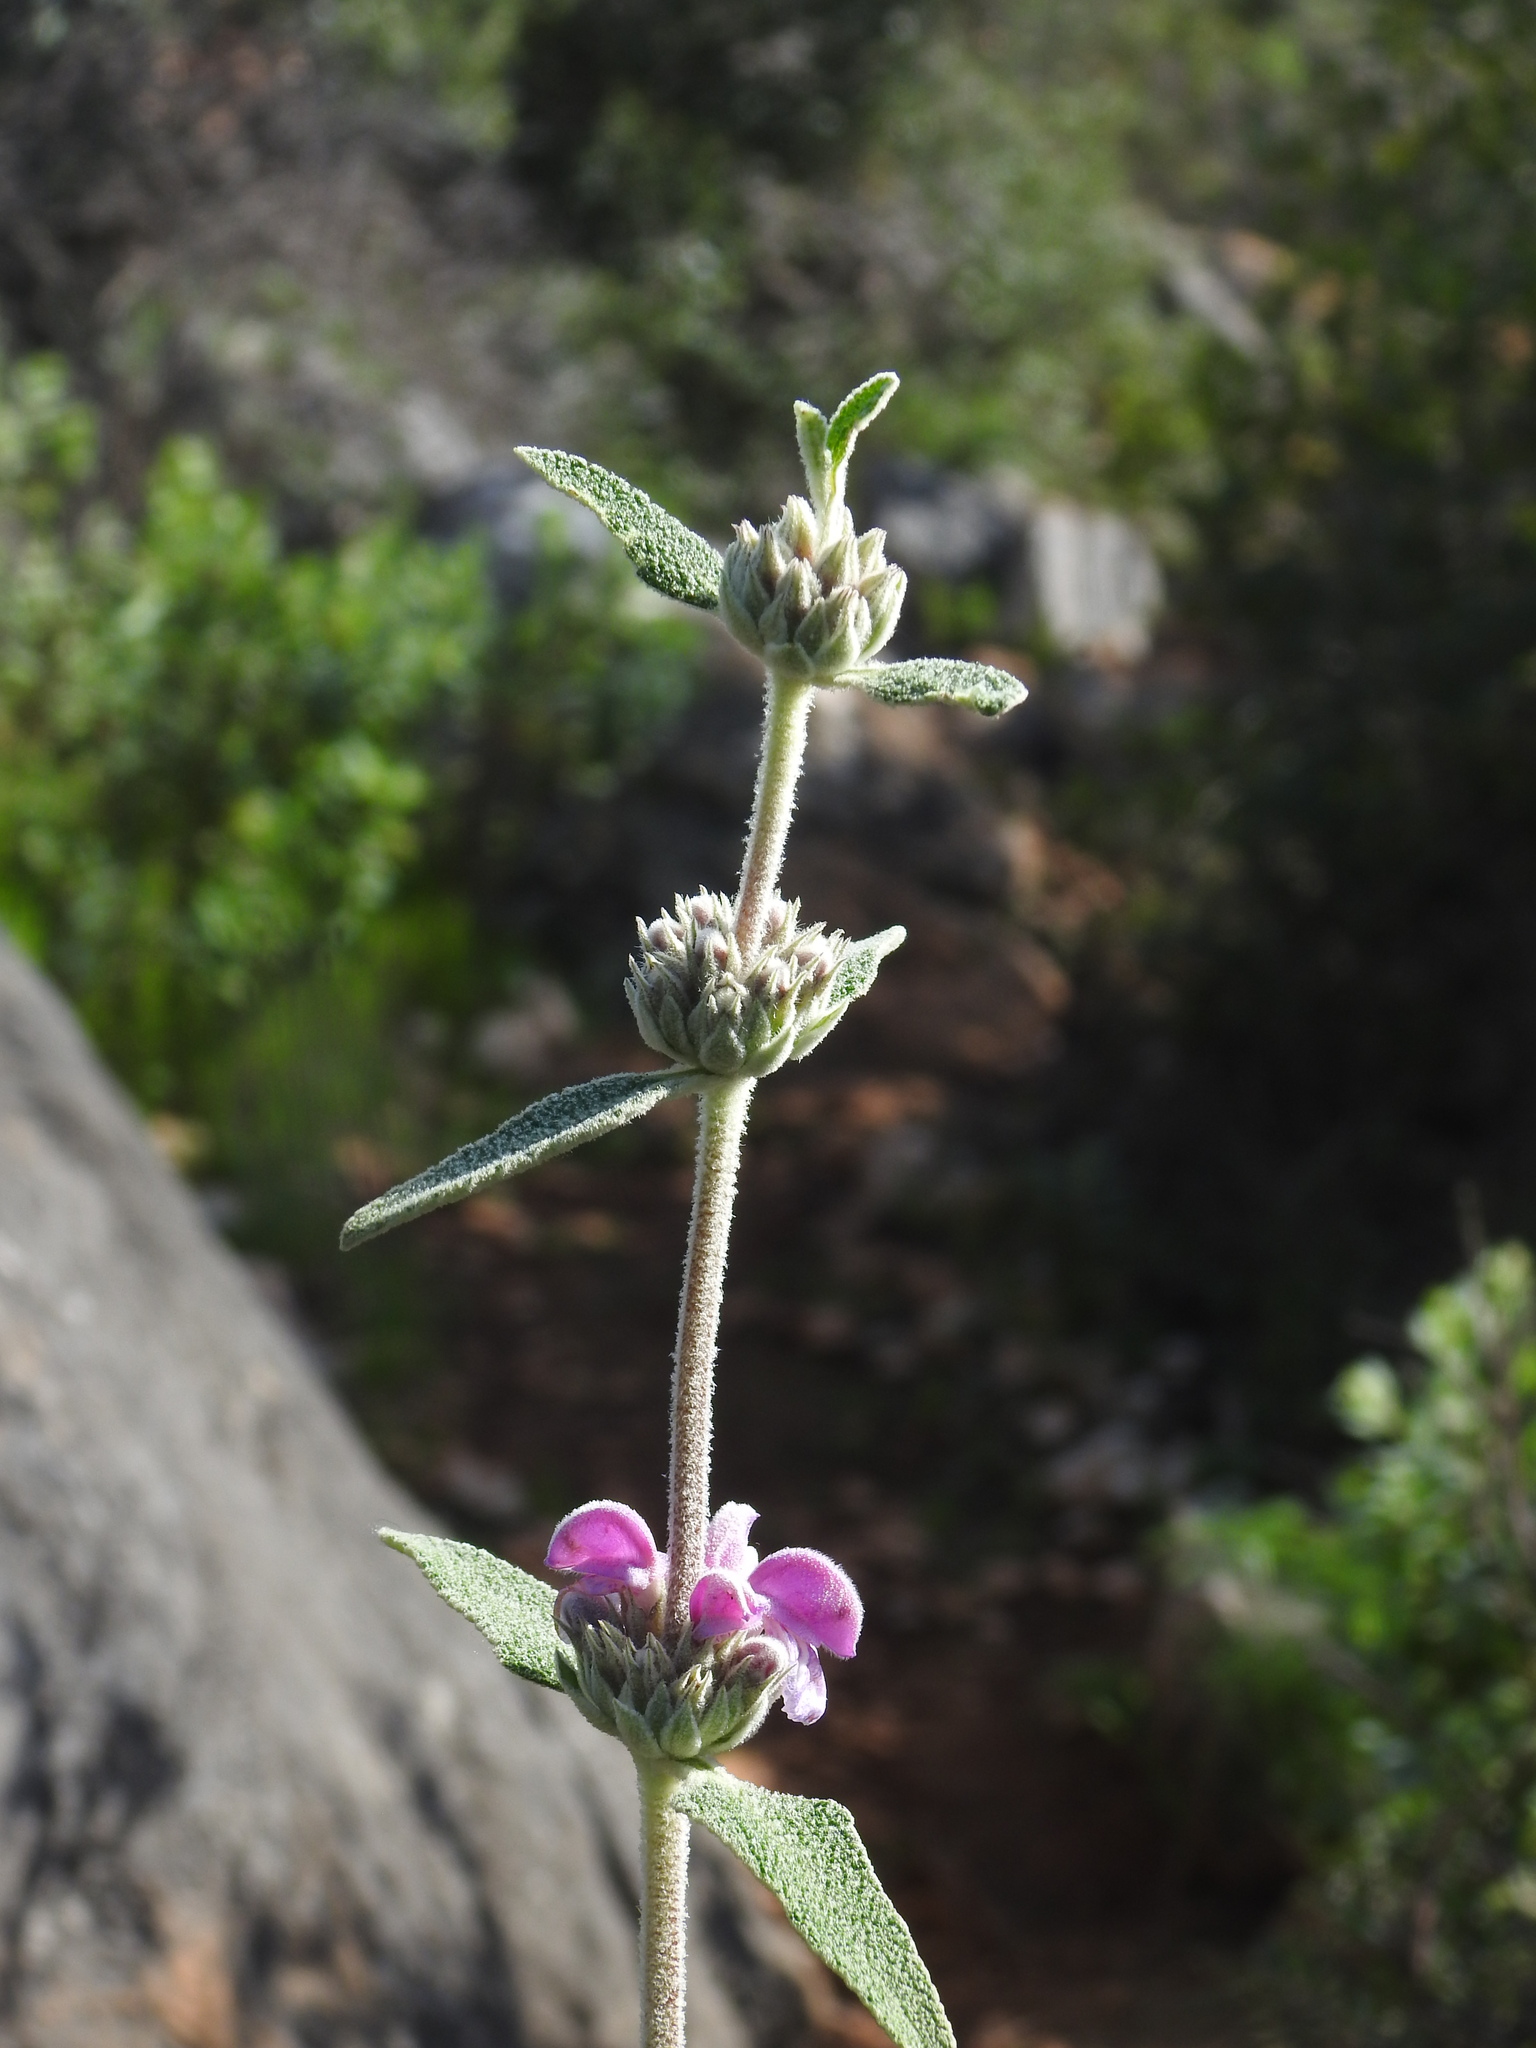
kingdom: Plantae
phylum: Tracheophyta
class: Magnoliopsida
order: Lamiales
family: Lamiaceae
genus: Phlomis
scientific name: Phlomis purpurea
